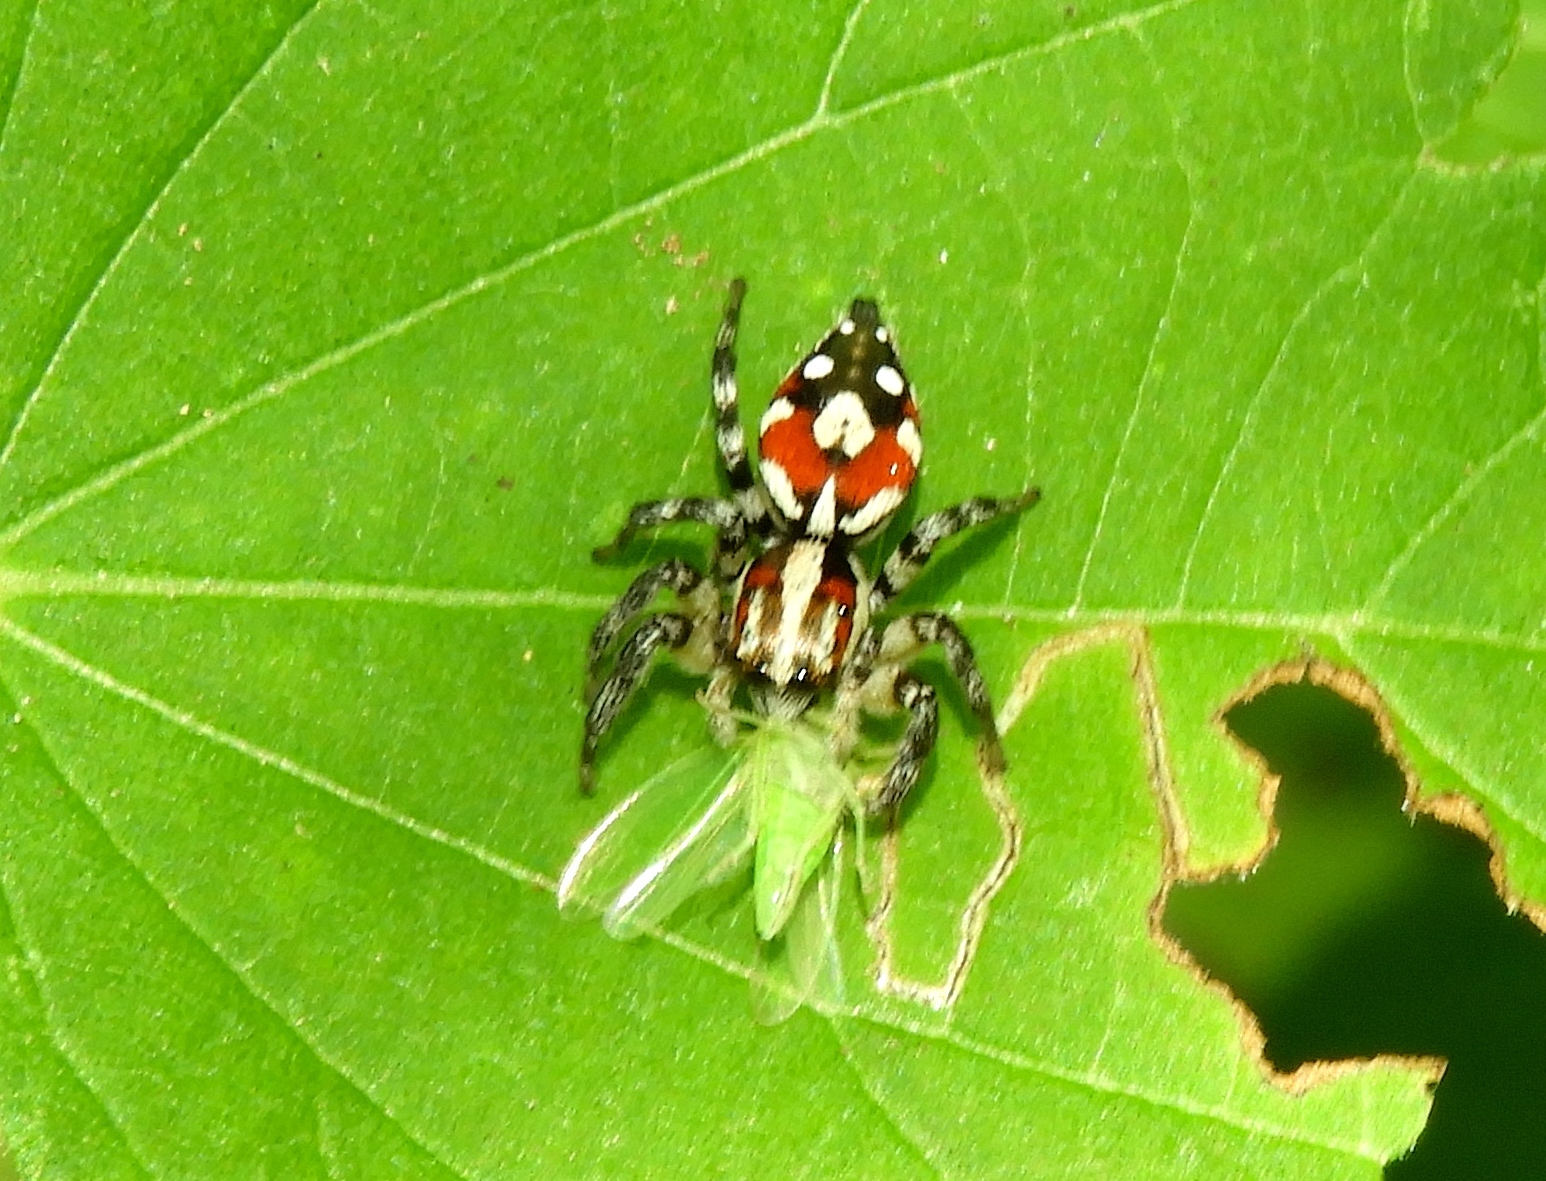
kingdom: Animalia
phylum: Arthropoda
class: Arachnida
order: Araneae
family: Salticidae
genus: Nycerella
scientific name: Nycerella delecta
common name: Jumping spiders
